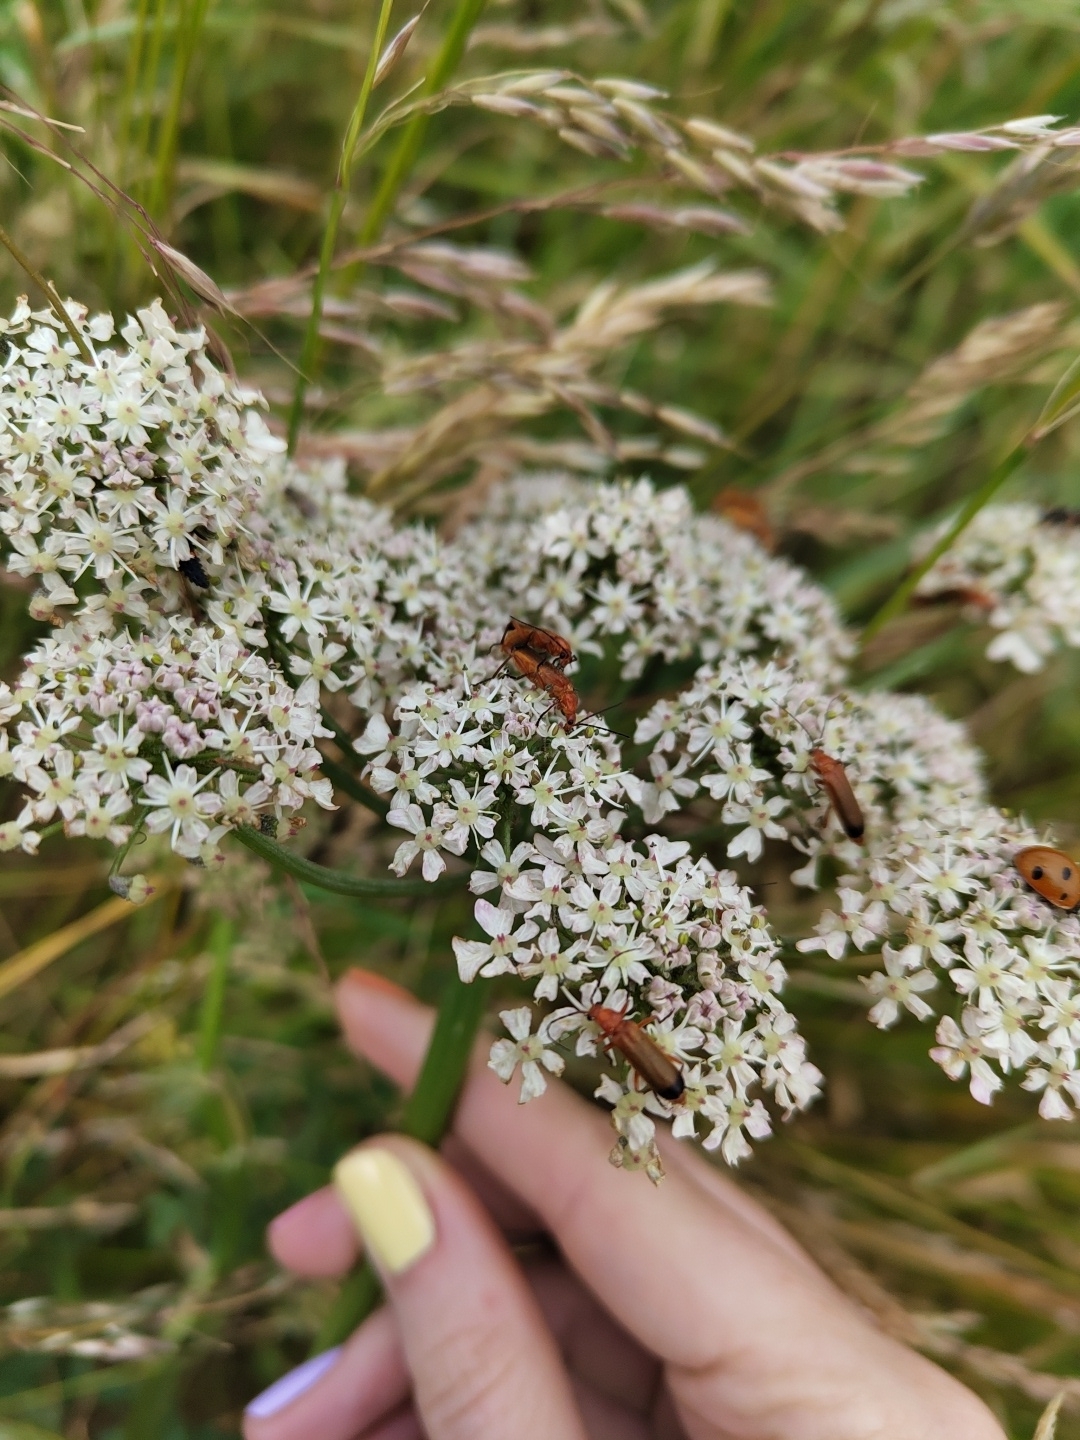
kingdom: Animalia
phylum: Arthropoda
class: Insecta
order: Coleoptera
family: Cantharidae
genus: Rhagonycha
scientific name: Rhagonycha fulva
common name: Common red soldier beetle
